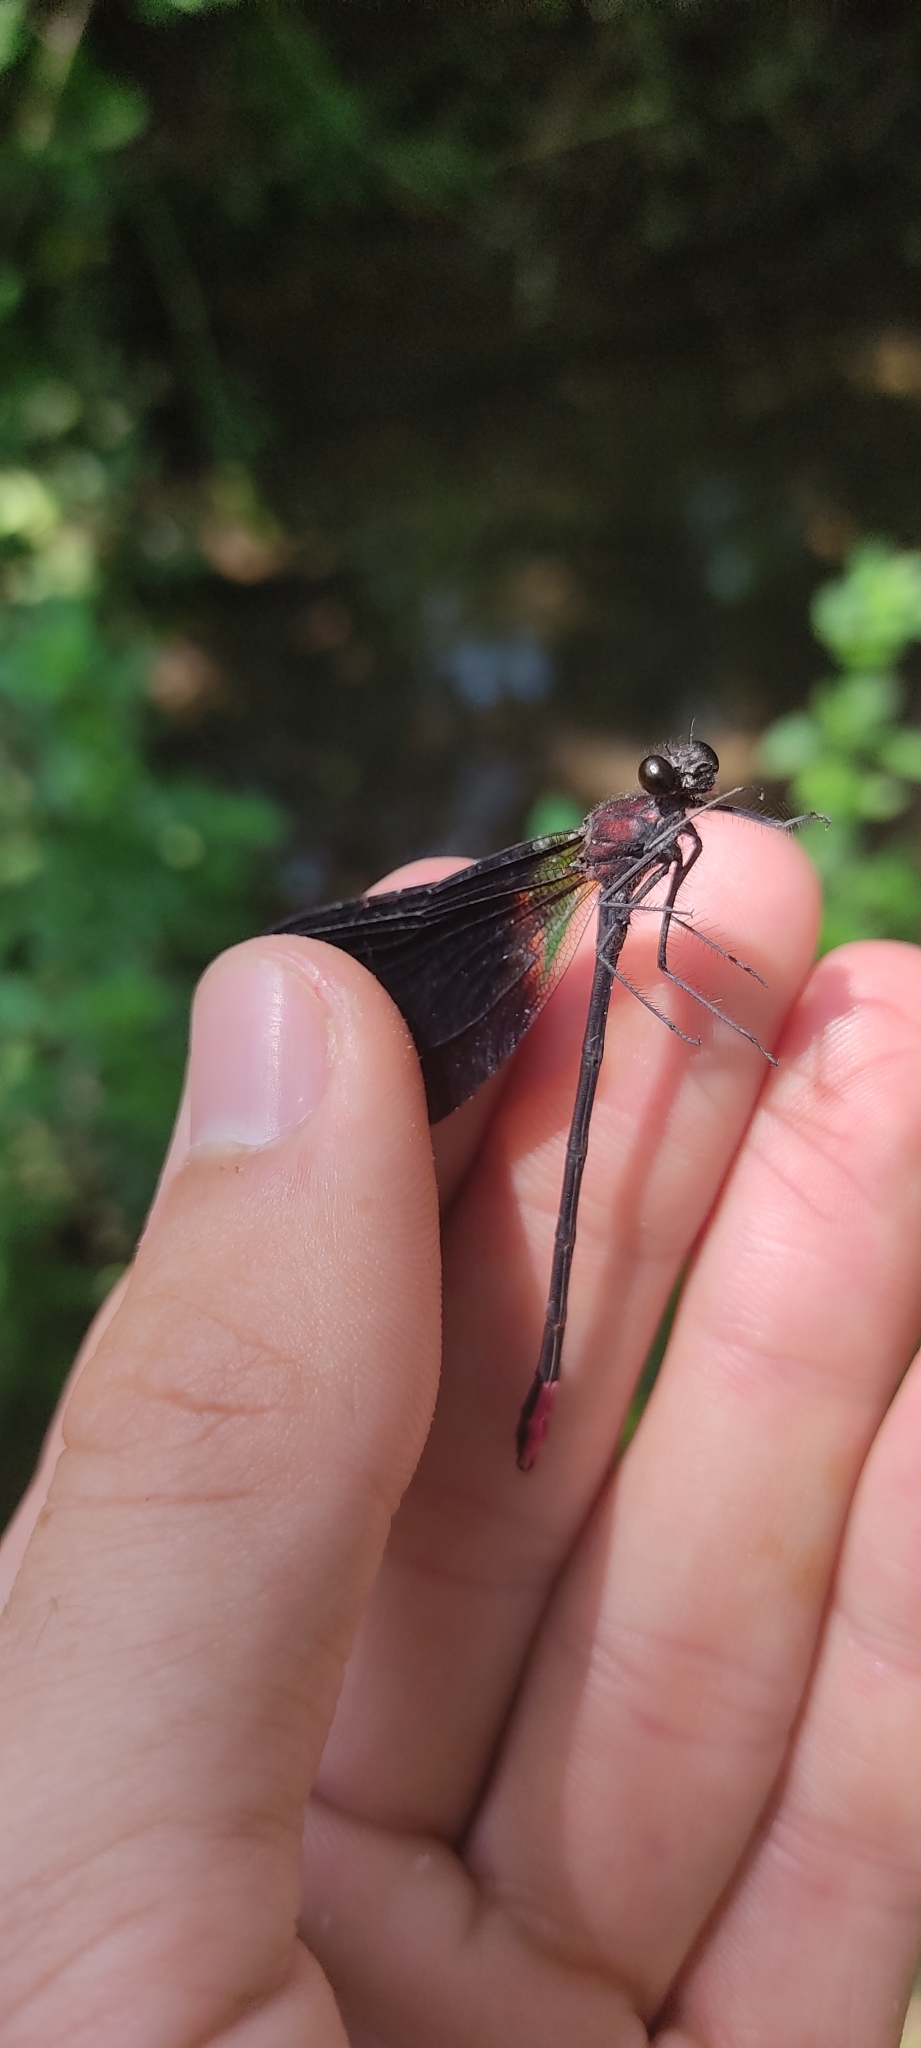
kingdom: Animalia
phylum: Arthropoda
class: Insecta
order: Odonata
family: Calopterygidae
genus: Calopteryx
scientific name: Calopteryx haemorrhoidalis
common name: Copper demoiselle
